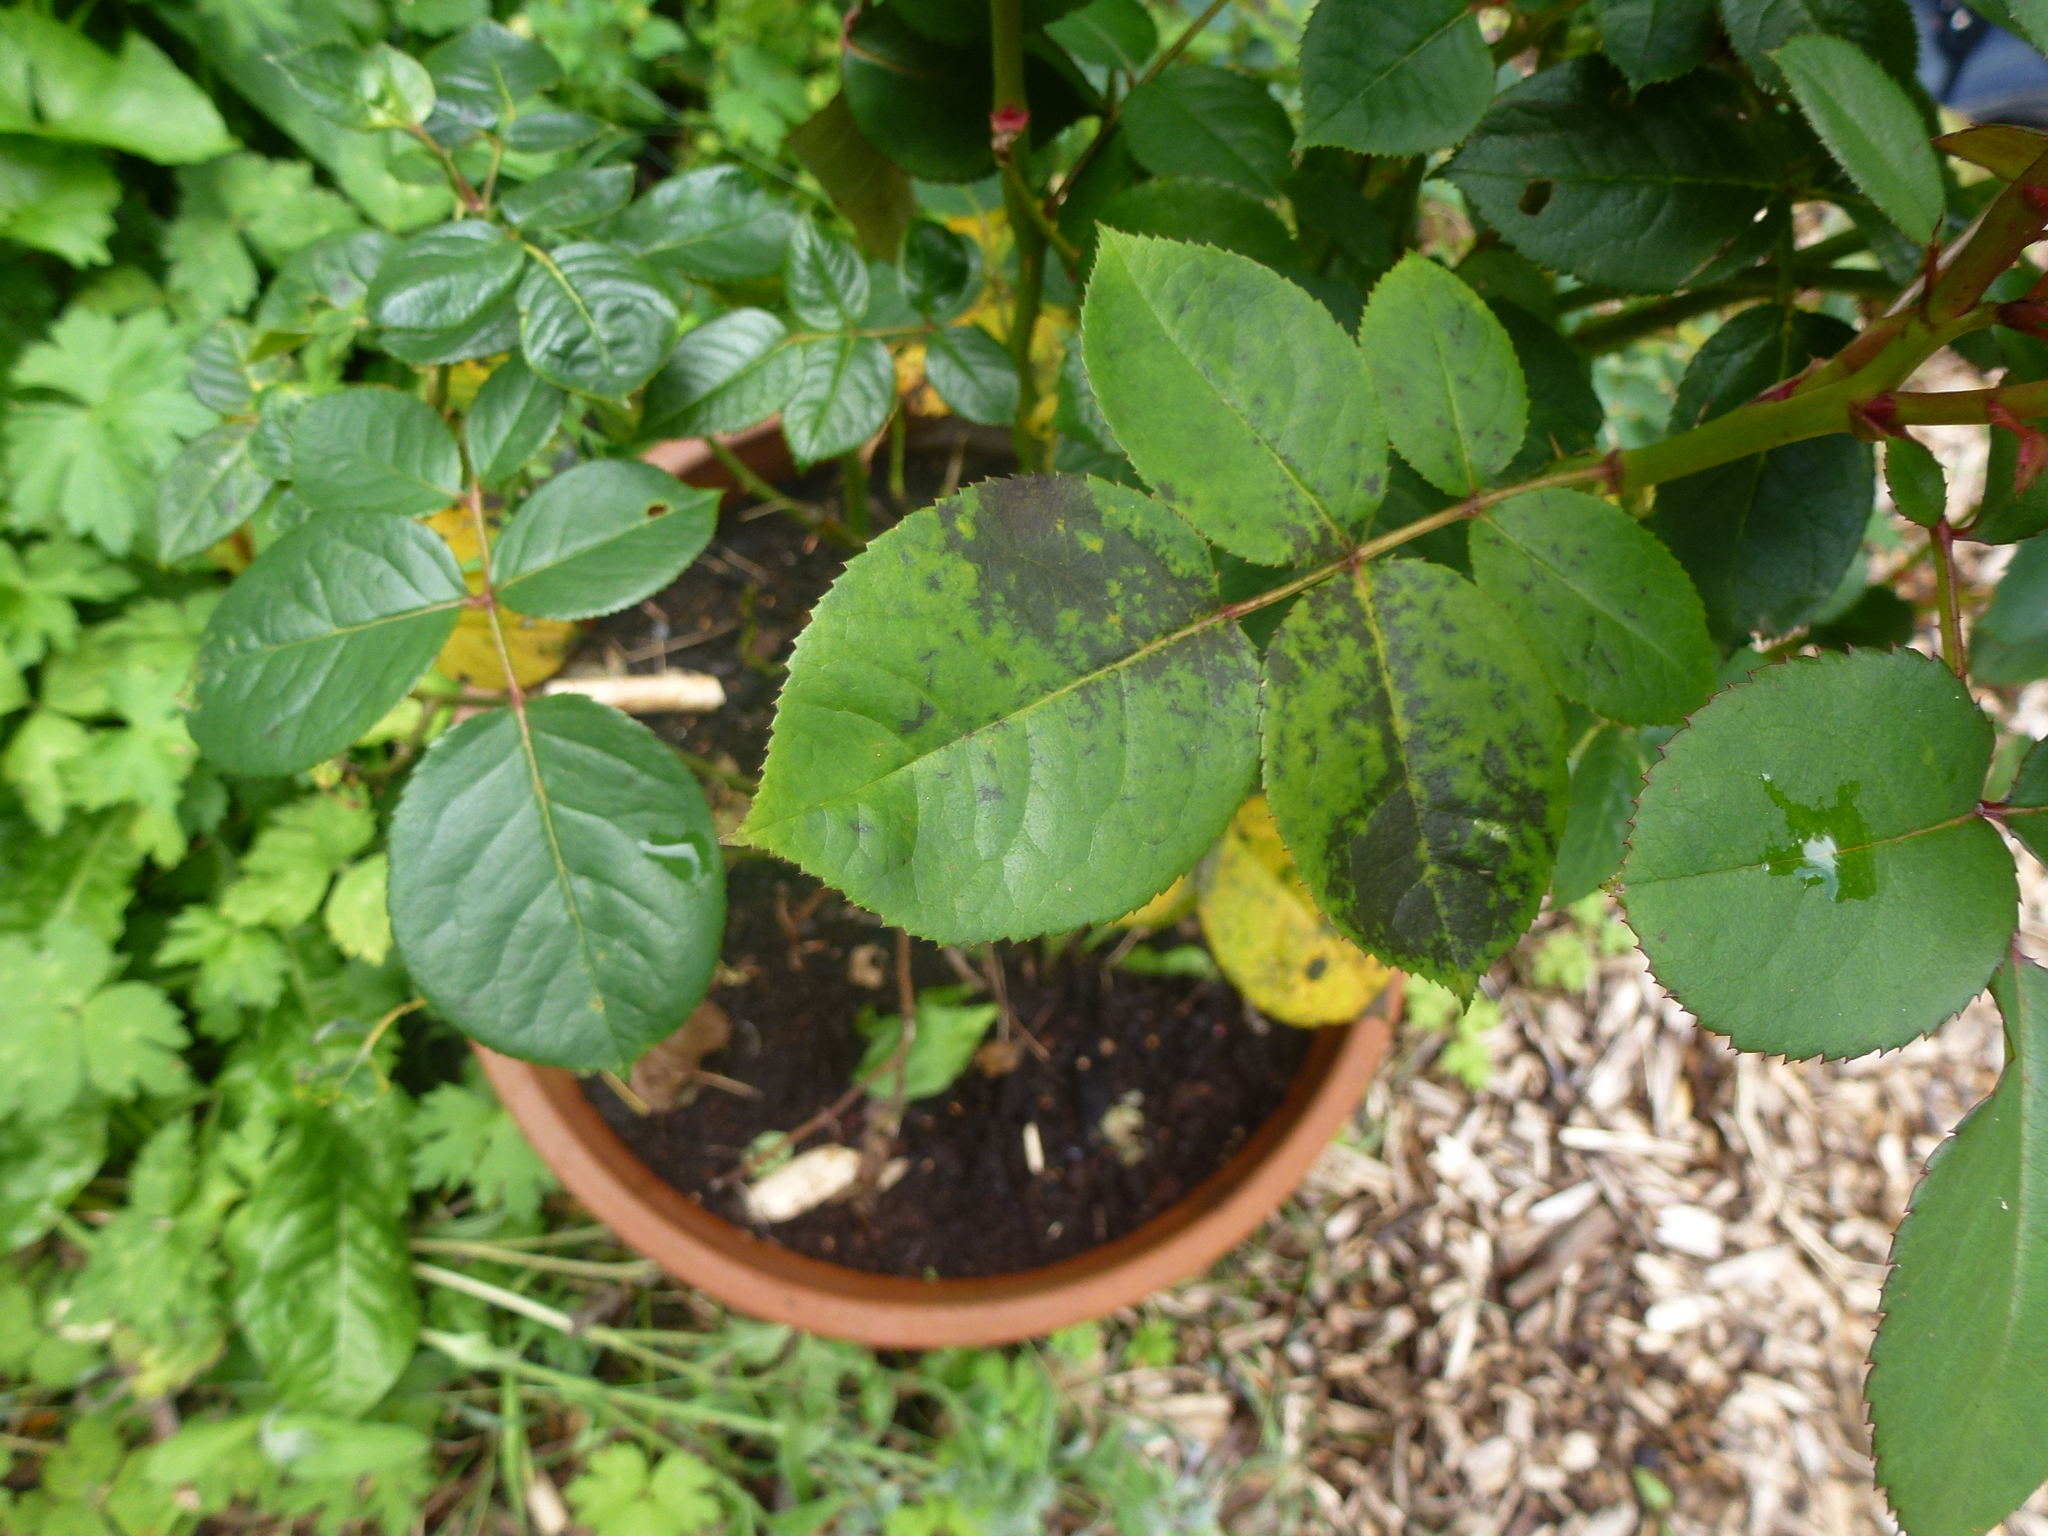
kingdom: Fungi
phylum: Ascomycota
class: Leotiomycetes
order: Helotiales
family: Drepanopezizaceae
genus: Diplocarpon
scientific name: Diplocarpon rosae
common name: Rose black-spot
